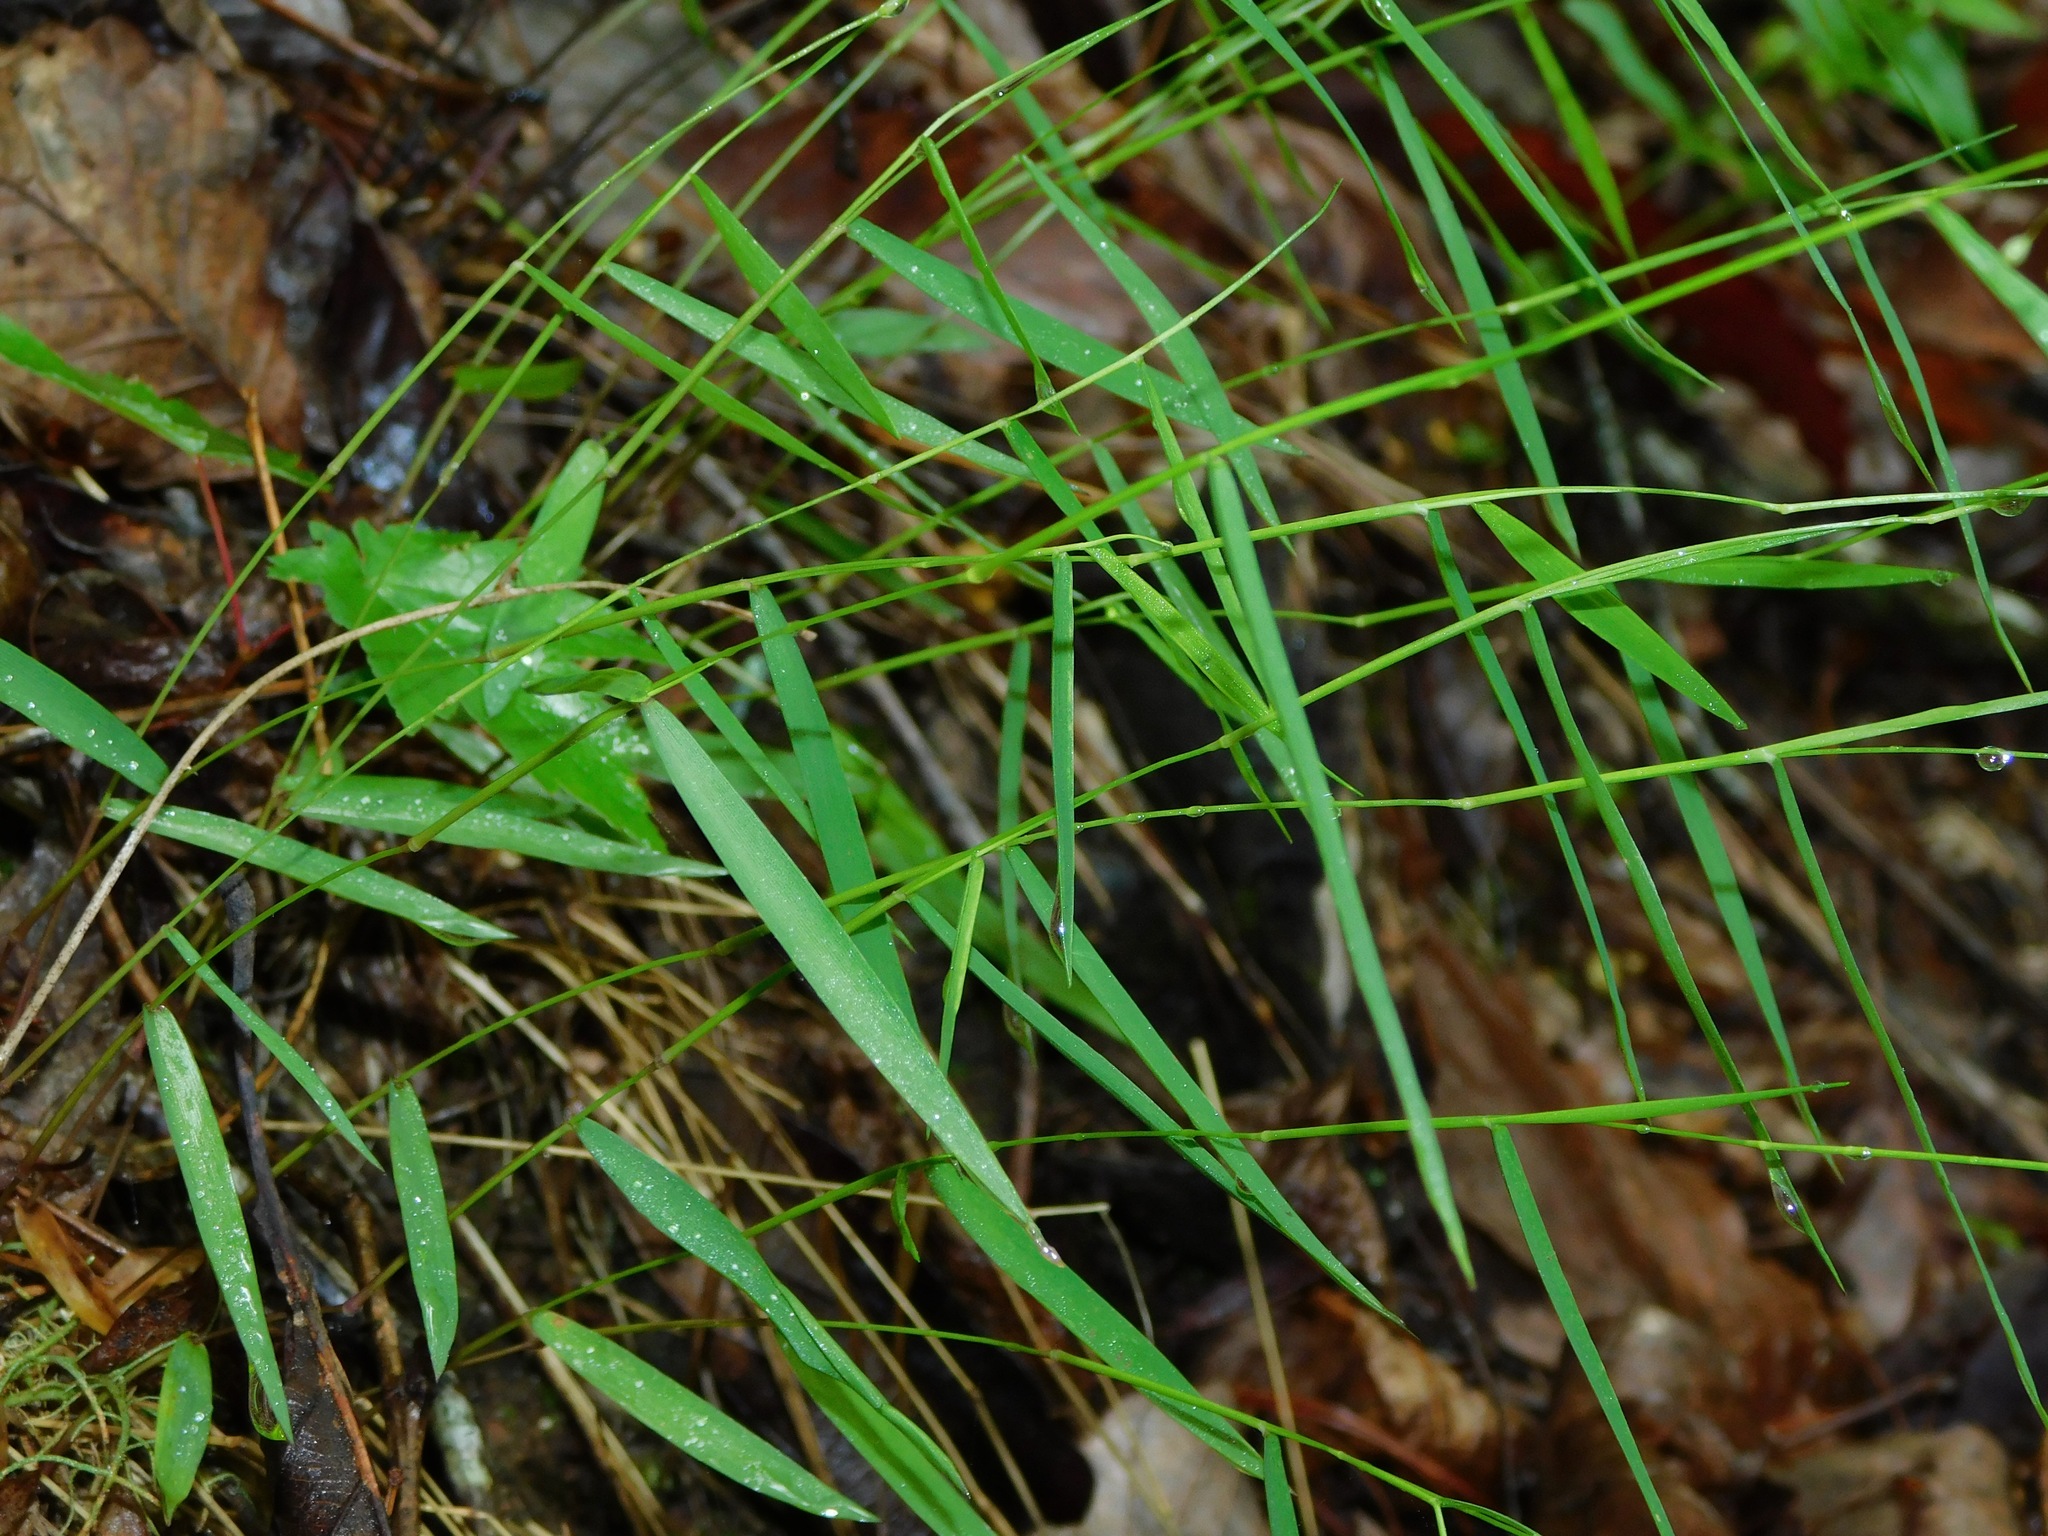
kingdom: Plantae
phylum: Tracheophyta
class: Liliopsida
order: Poales
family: Poaceae
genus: Dichanthelium
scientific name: Dichanthelium dichotomum
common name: Cypress panicgrass
